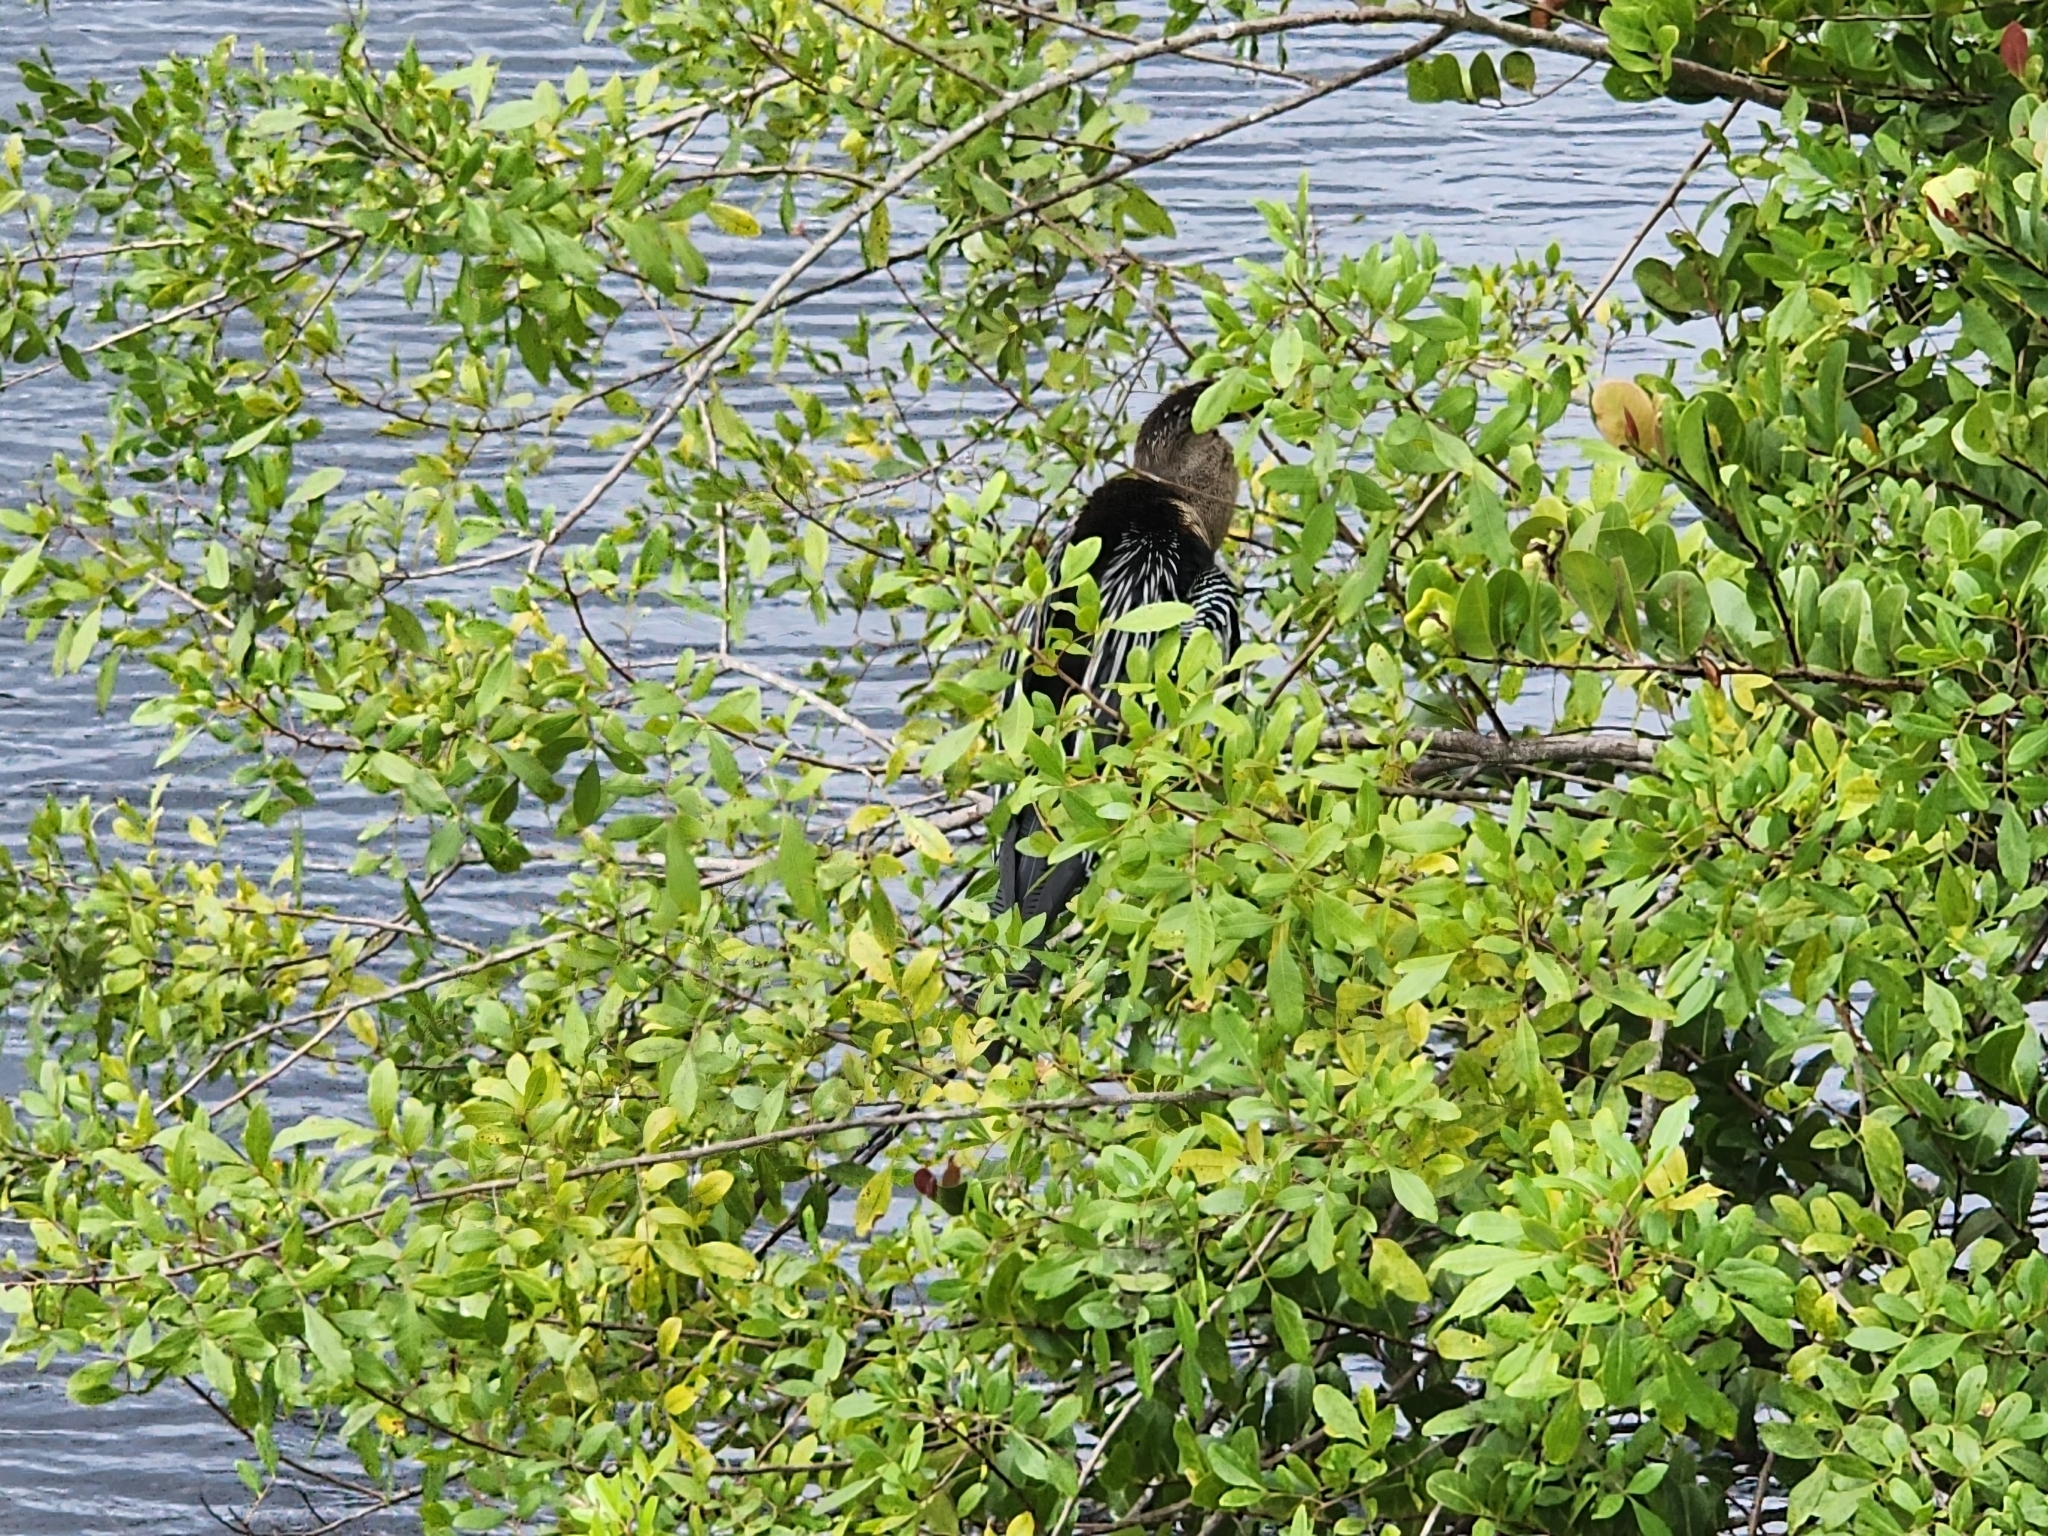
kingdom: Animalia
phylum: Chordata
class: Aves
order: Suliformes
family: Anhingidae
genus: Anhinga
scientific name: Anhinga anhinga
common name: Anhinga
